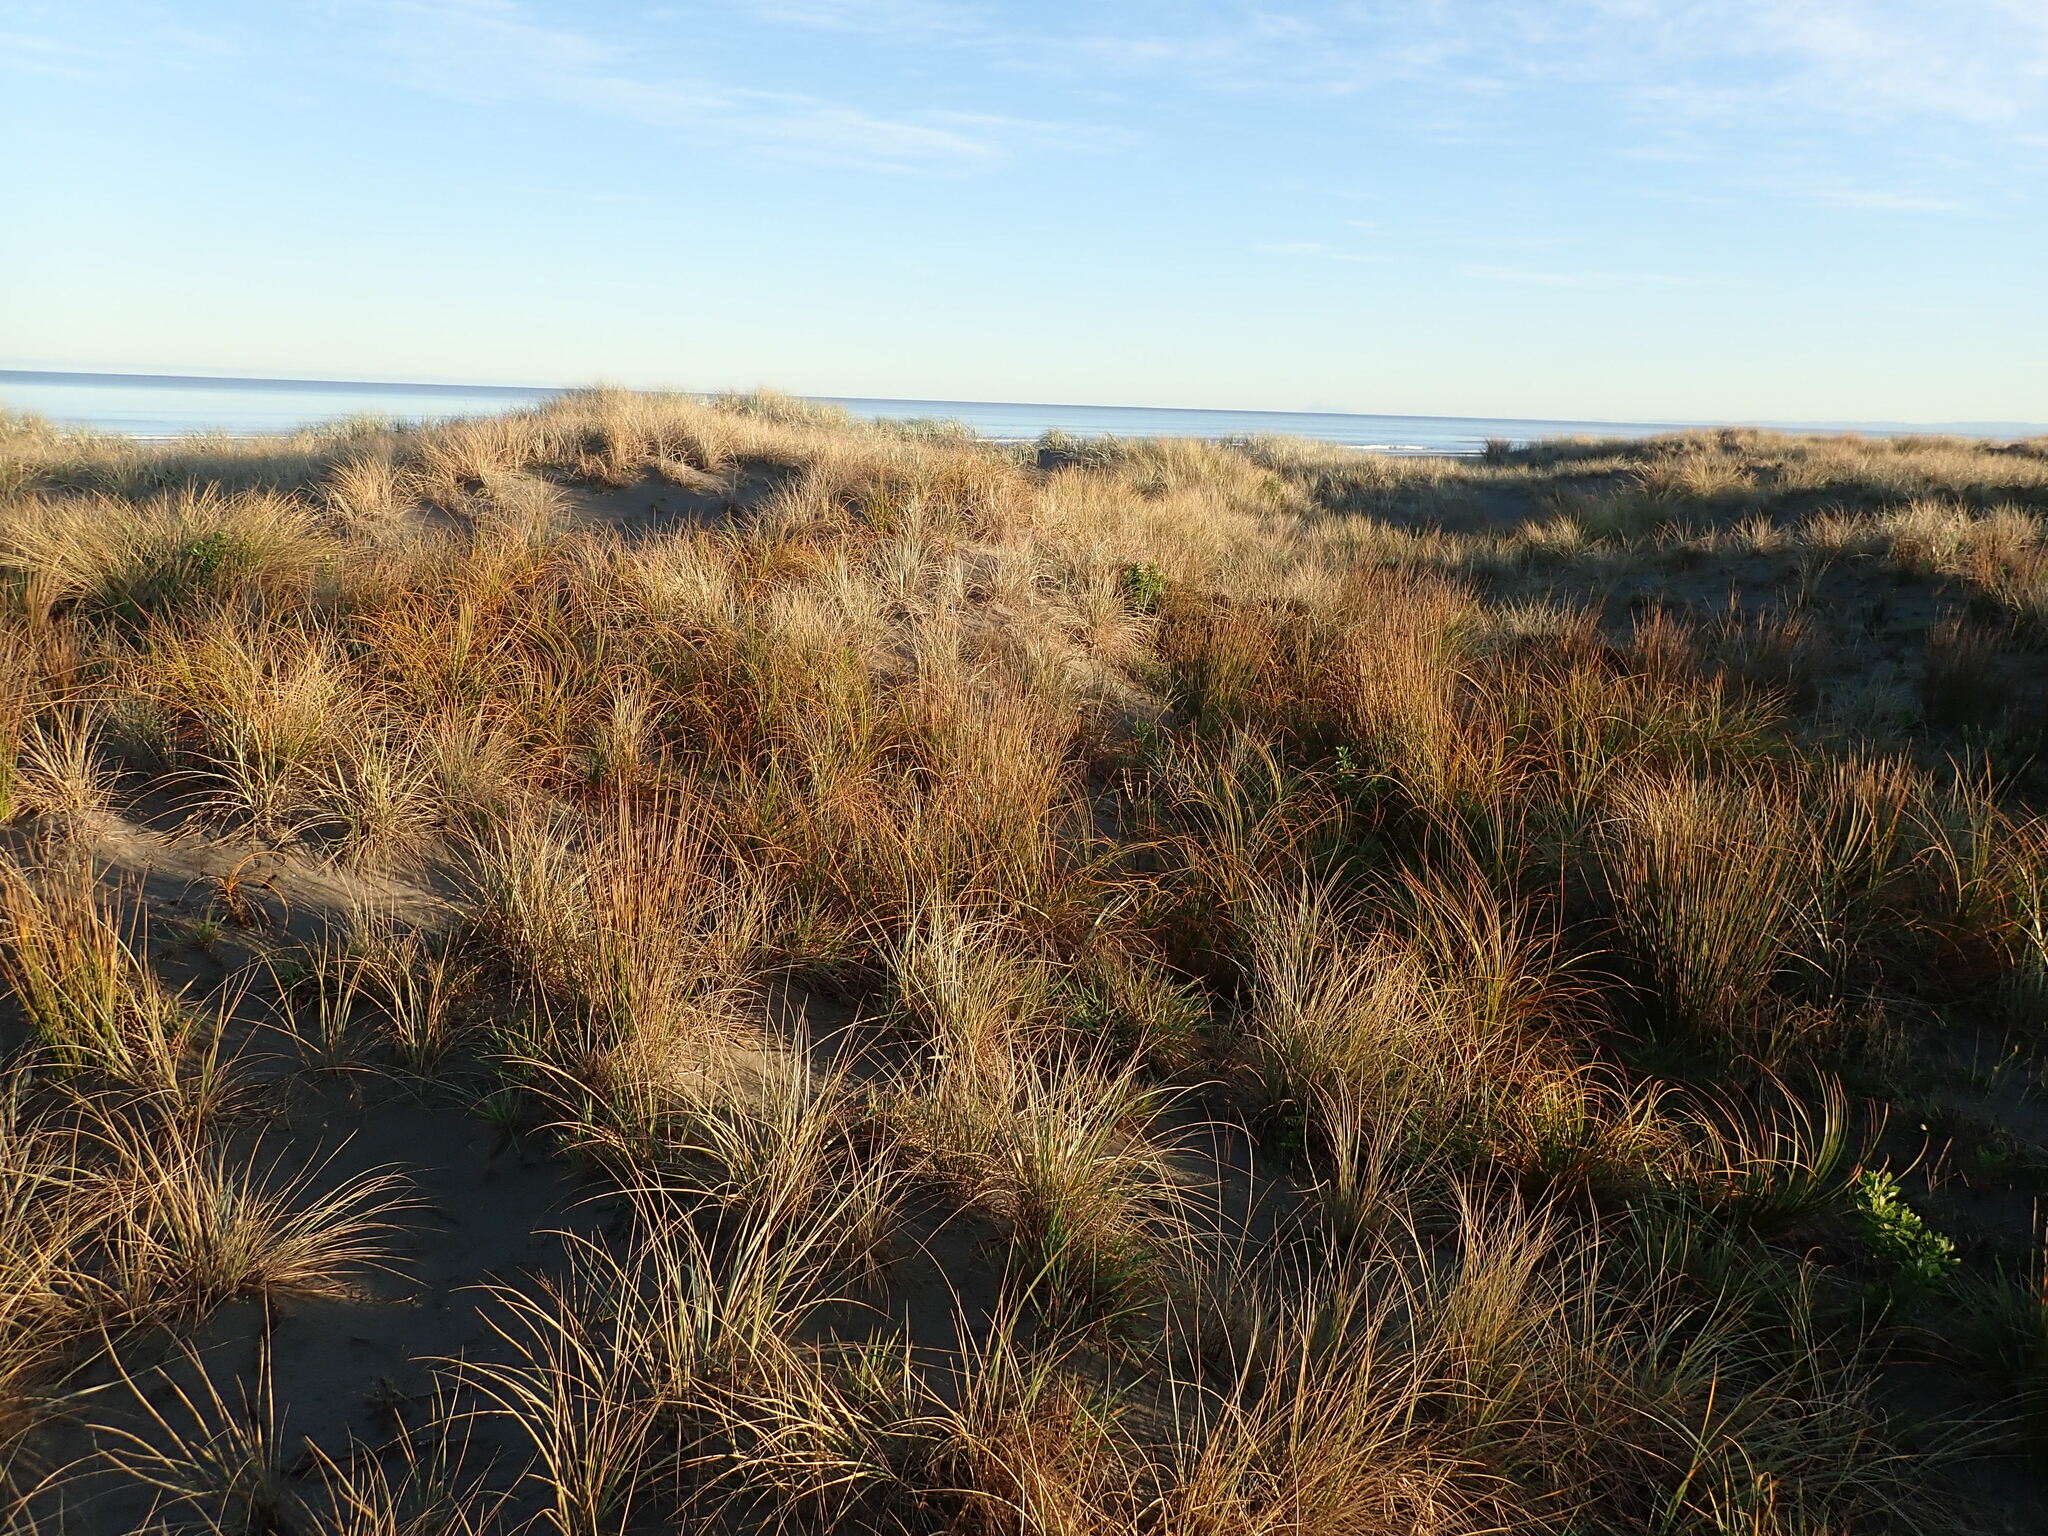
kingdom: Plantae
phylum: Tracheophyta
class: Liliopsida
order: Poales
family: Cyperaceae
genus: Ficinia
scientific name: Ficinia spiralis
